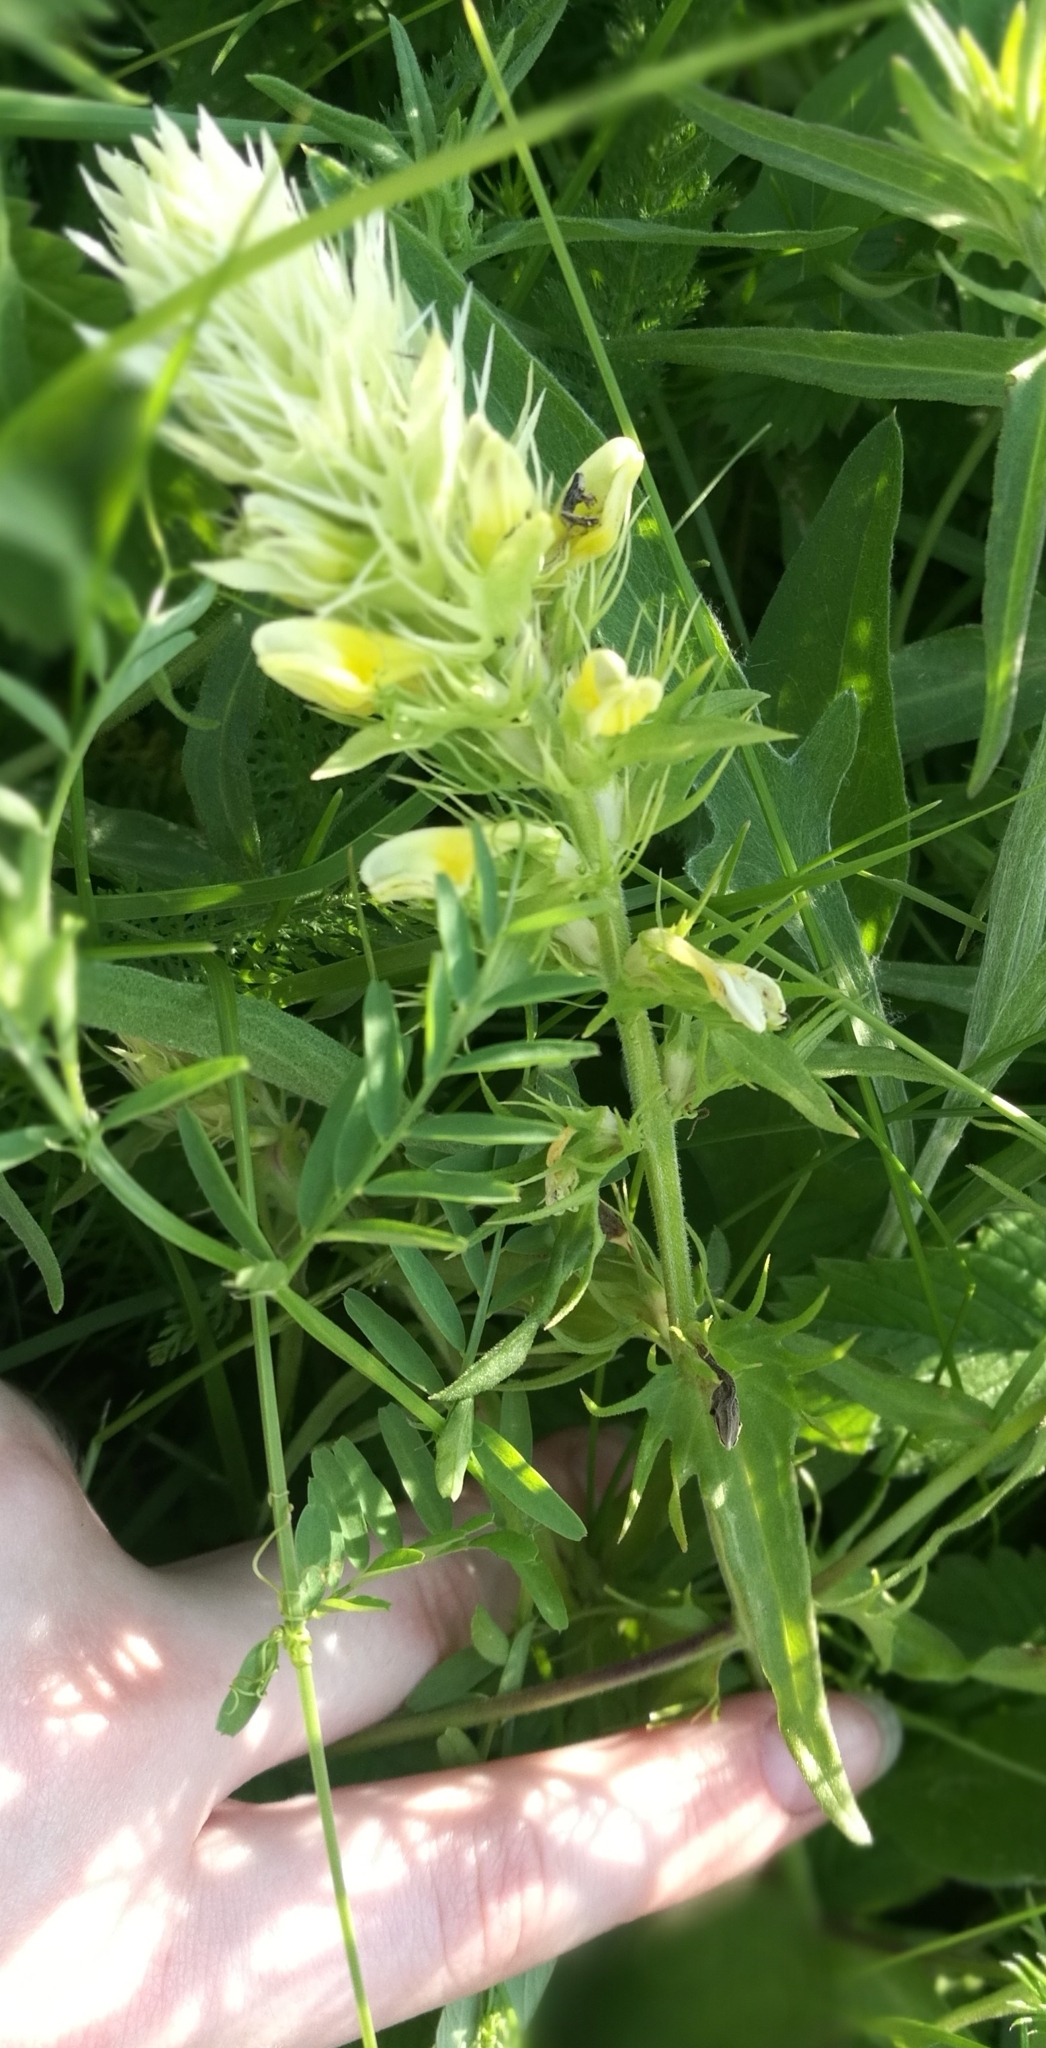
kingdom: Plantae
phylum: Tracheophyta
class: Magnoliopsida
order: Lamiales
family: Orobanchaceae
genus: Melampyrum
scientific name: Melampyrum arvense
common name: Field cow-wheat
